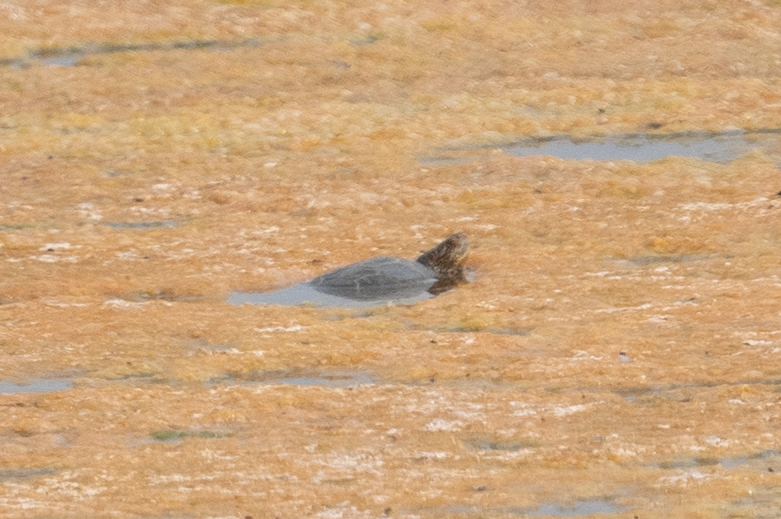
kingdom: Animalia
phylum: Chordata
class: Testudines
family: Emydidae
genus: Actinemys
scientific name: Actinemys marmorata
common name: Western pond turtle
